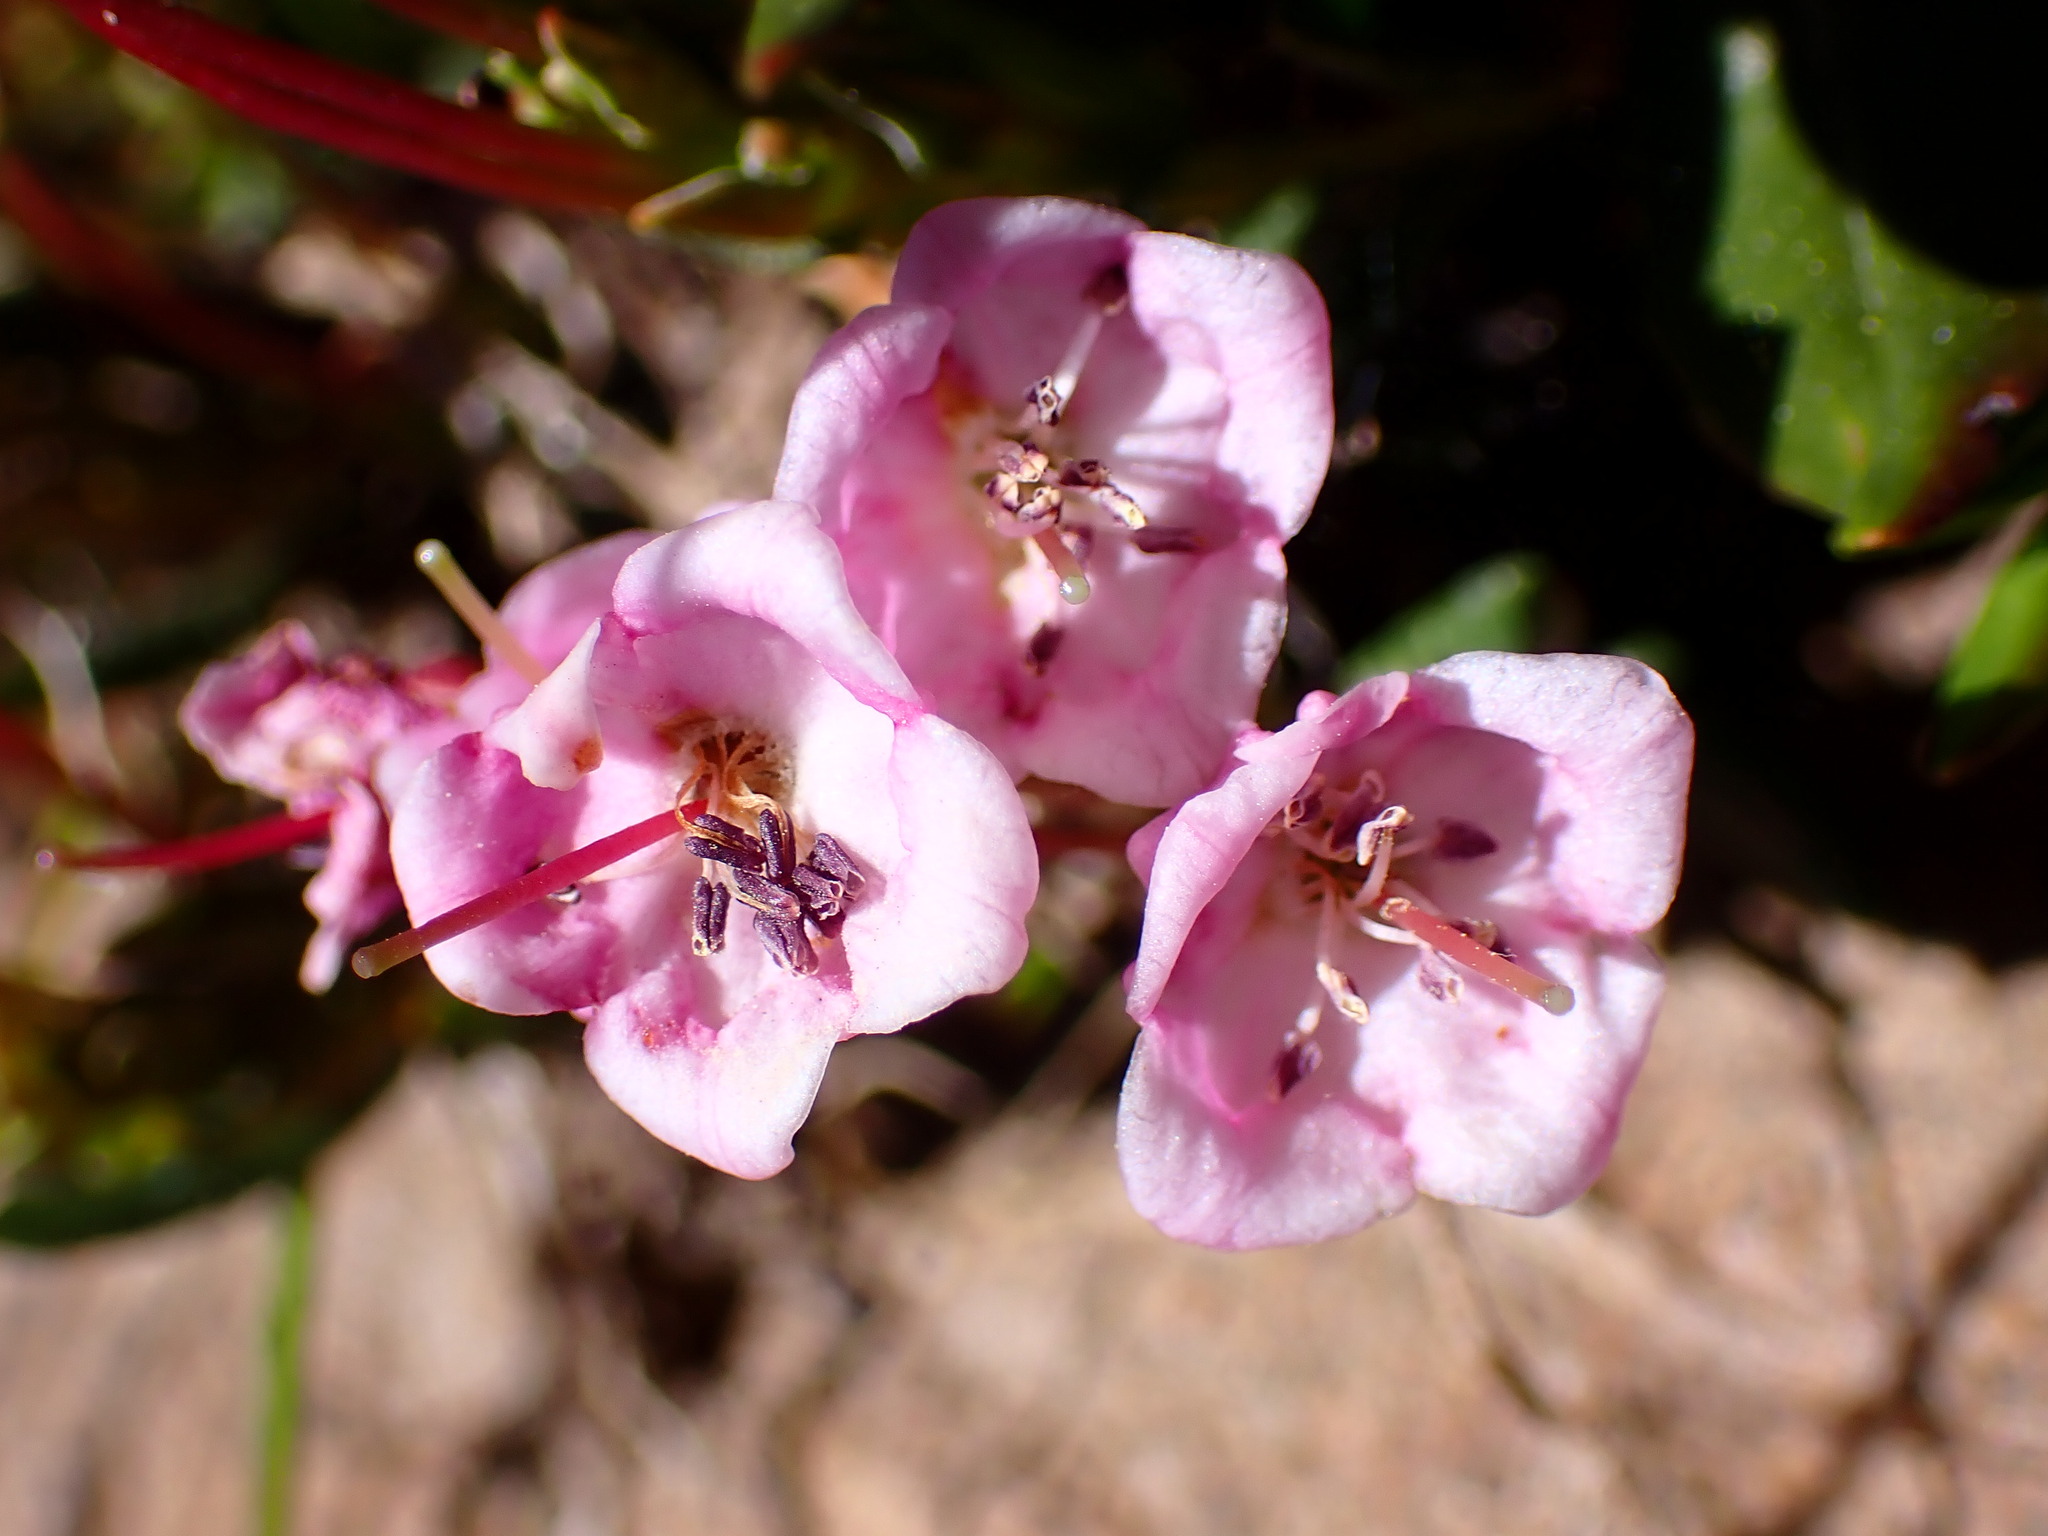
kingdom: Plantae
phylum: Tracheophyta
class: Magnoliopsida
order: Ericales
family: Ericaceae
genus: Kalmia
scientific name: Kalmia microphylla
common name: Alpine bog laurel
